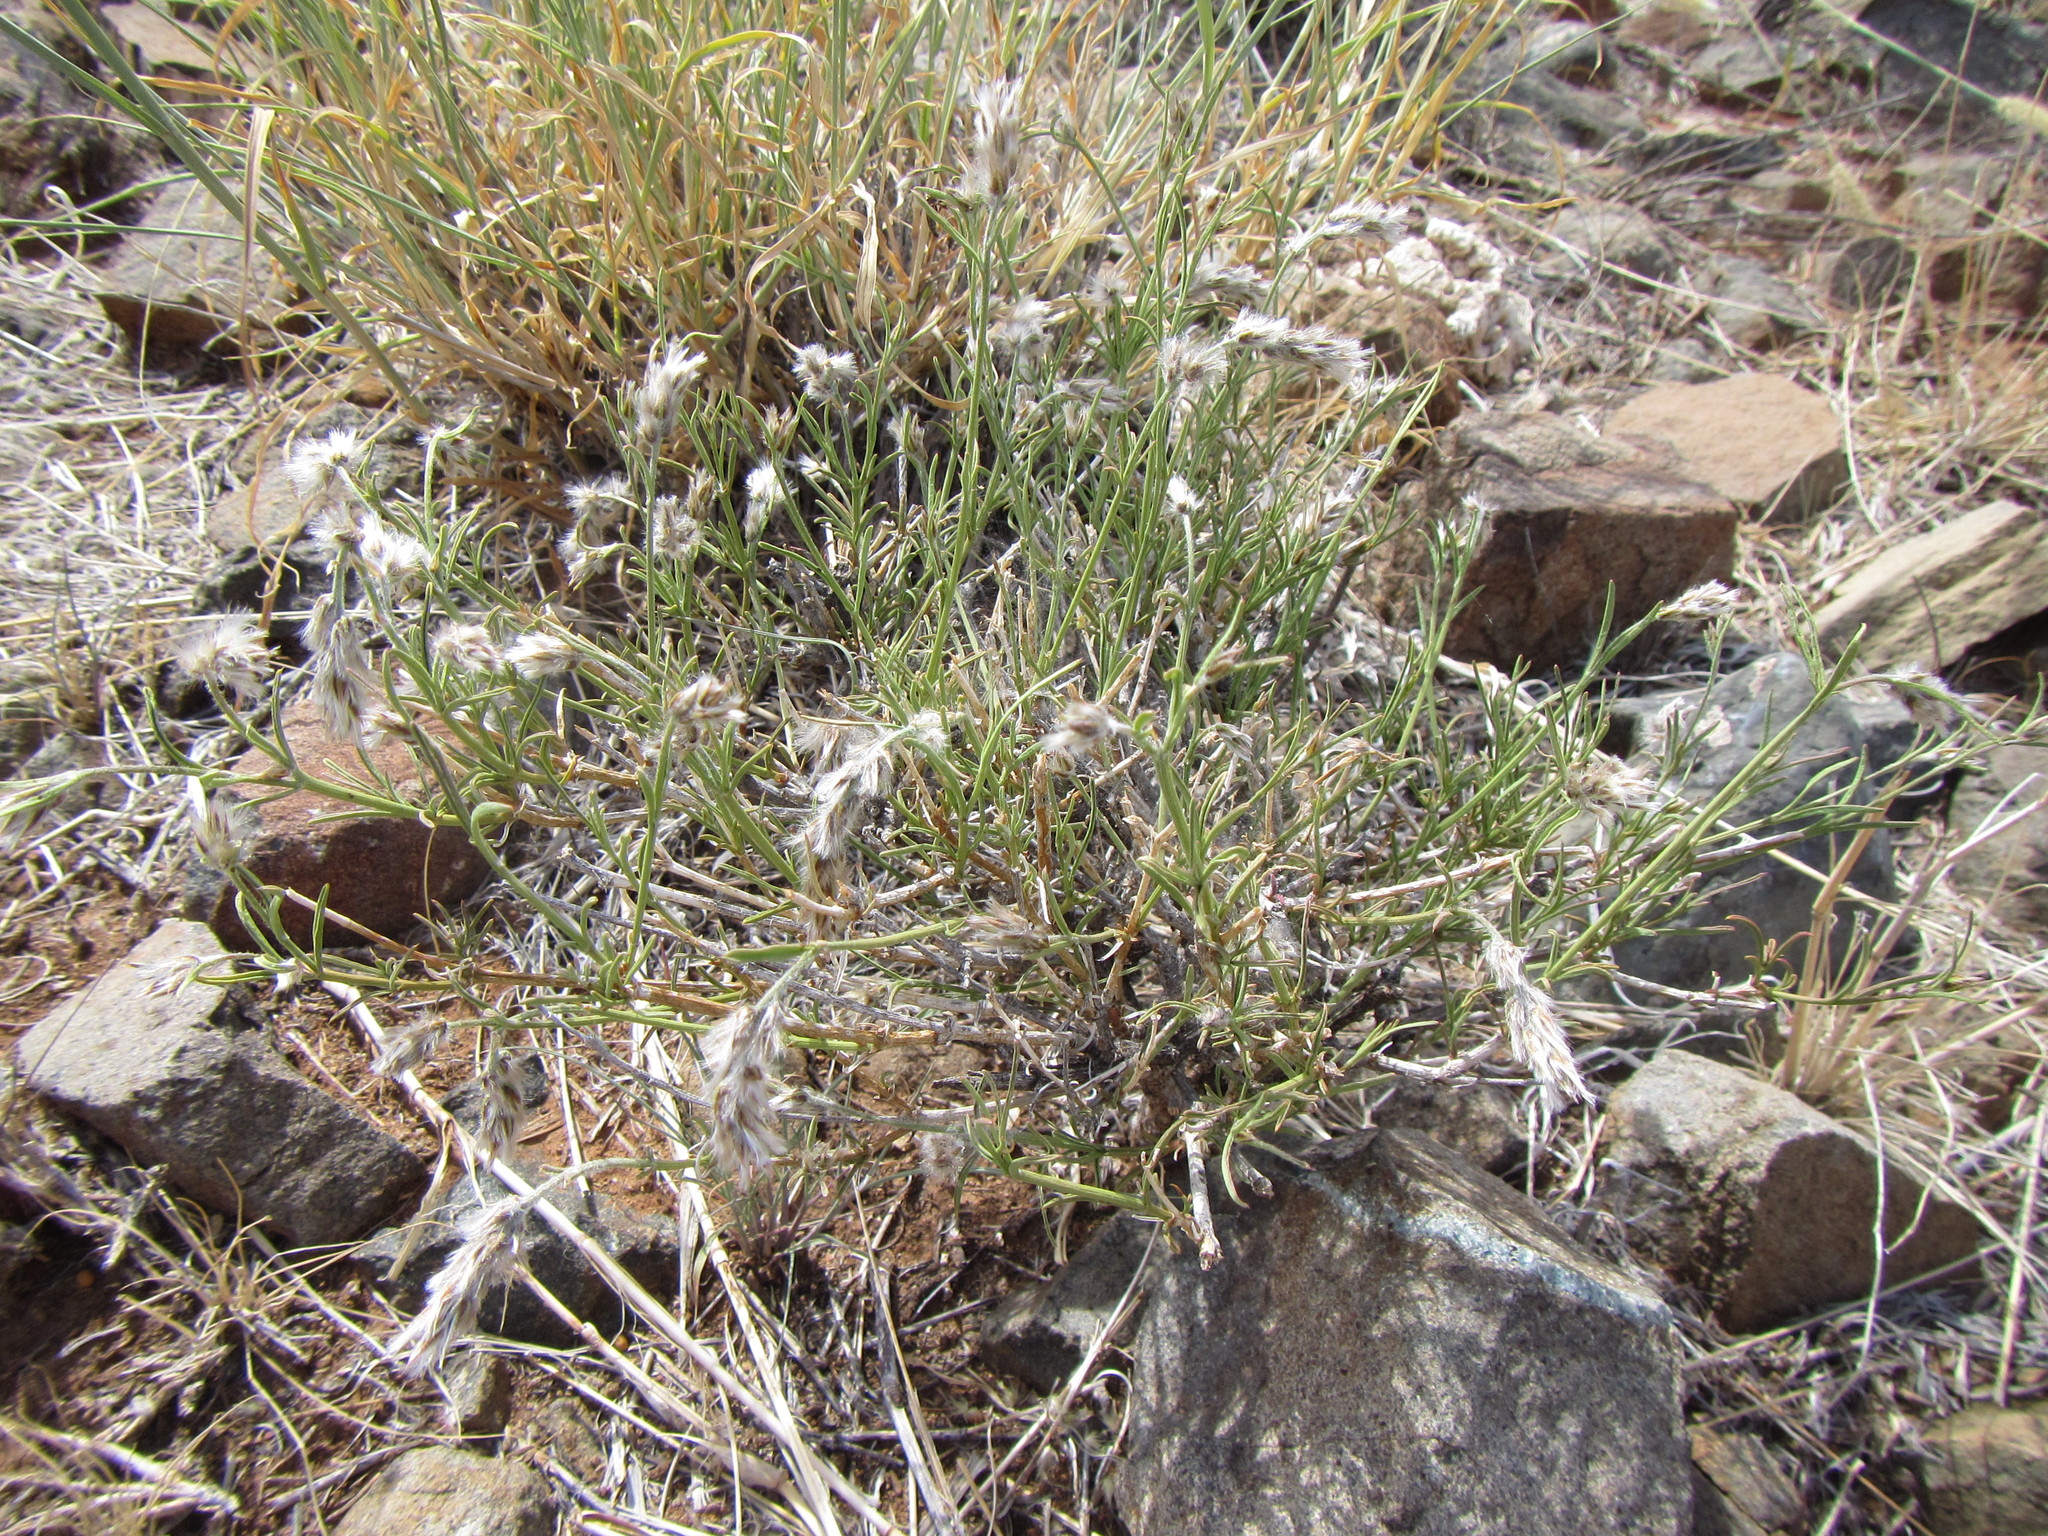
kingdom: Plantae
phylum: Tracheophyta
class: Magnoliopsida
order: Caryophyllales
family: Amaranthaceae
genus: Sericocoma
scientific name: Sericocoma avolans
